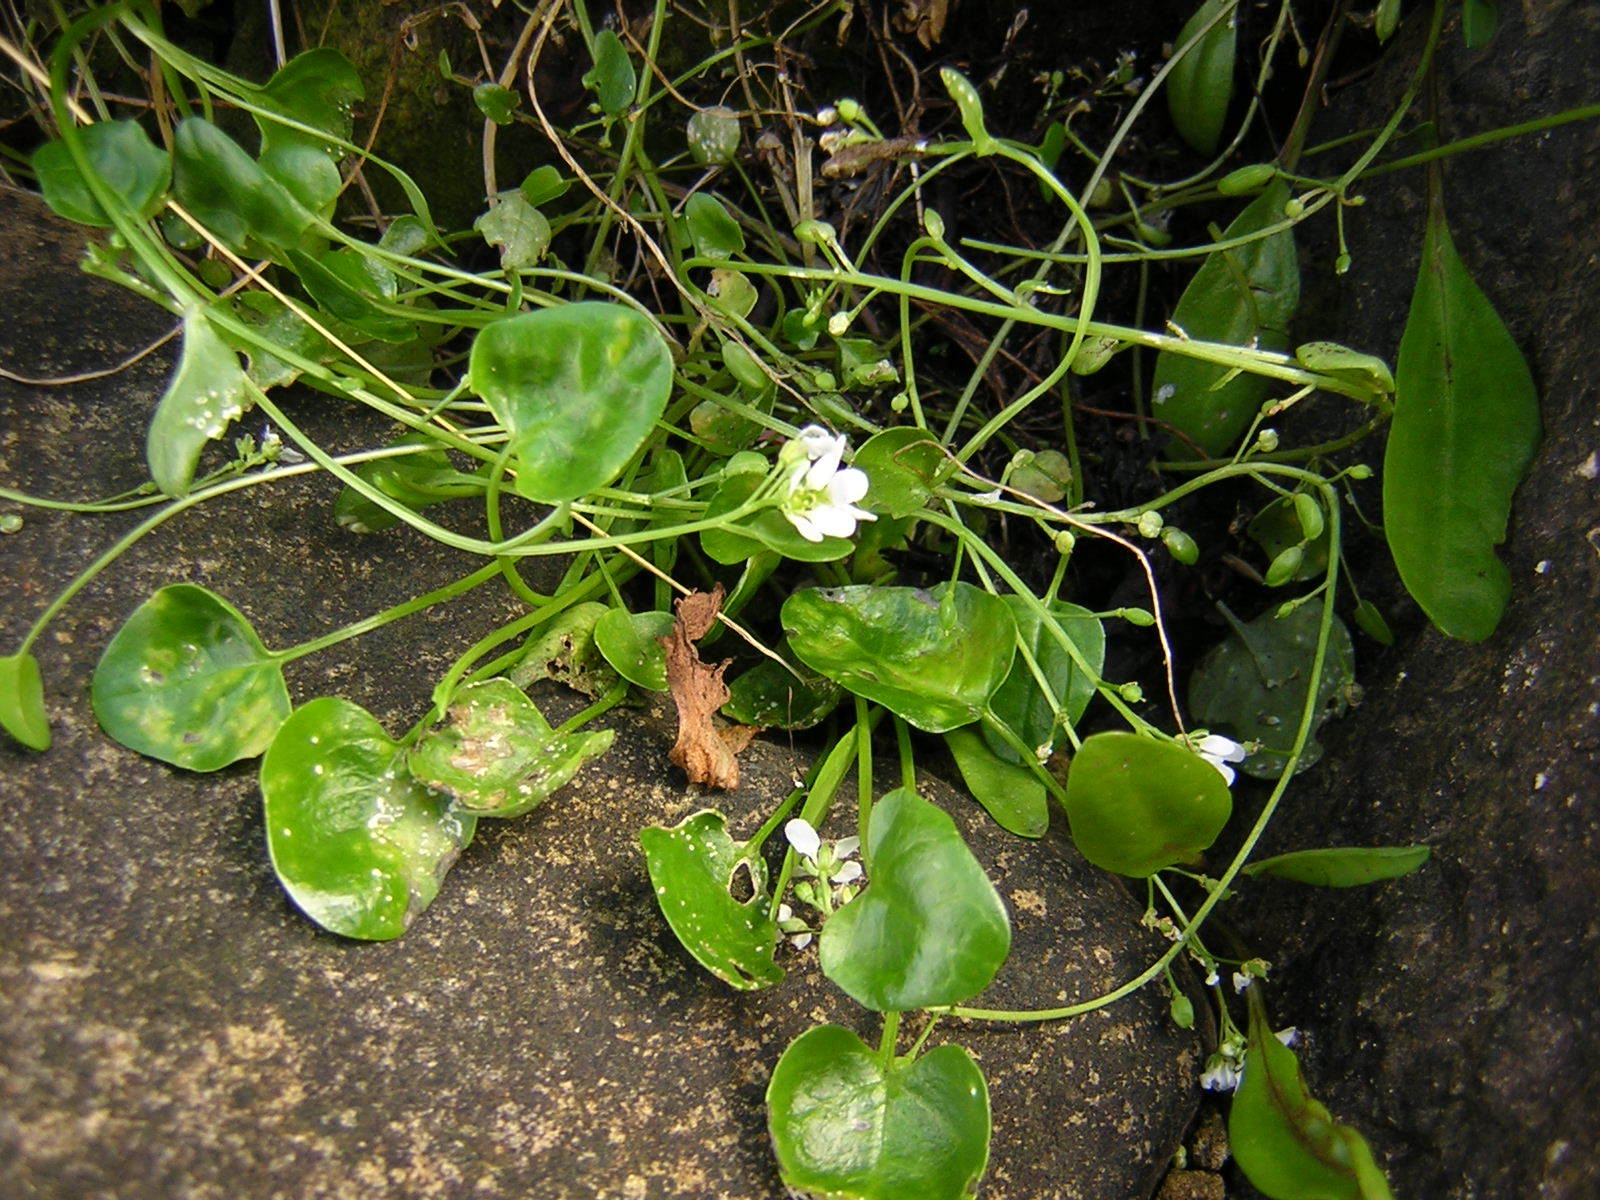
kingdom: Plantae
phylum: Tracheophyta
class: Magnoliopsida
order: Brassicales
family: Brassicaceae
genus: Cochlearia
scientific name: Cochlearia officinalis
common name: Scurvy-grass
